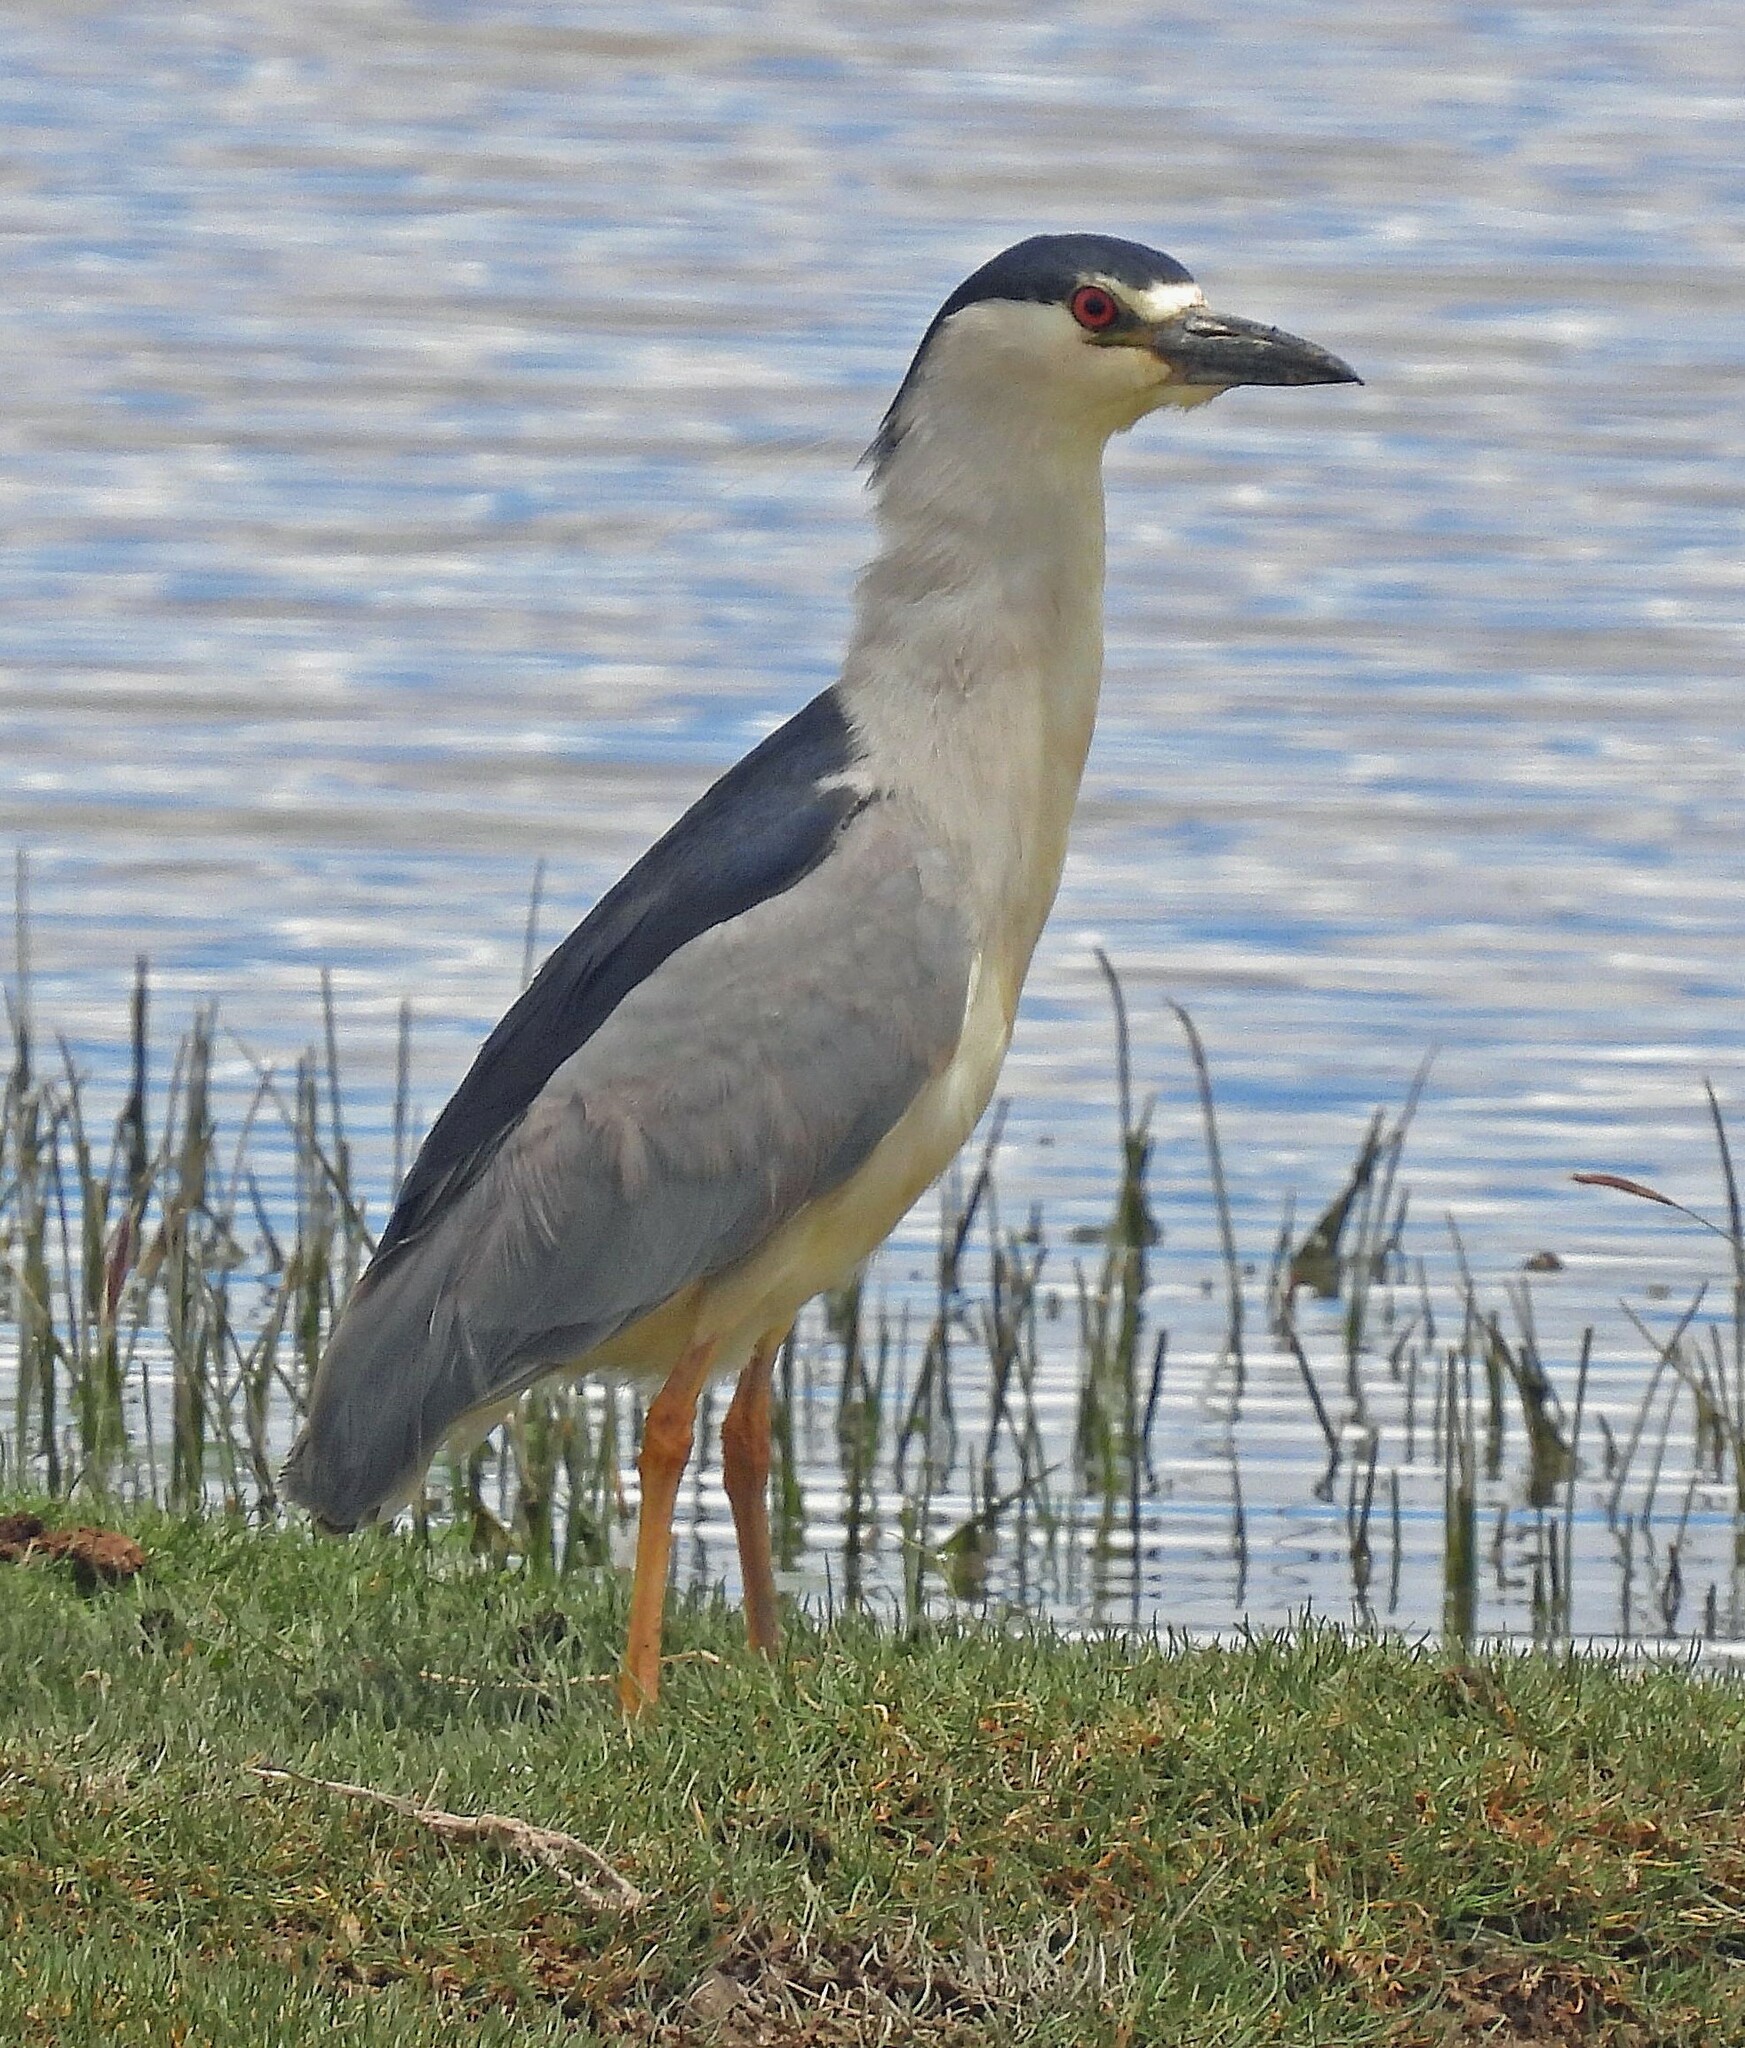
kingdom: Animalia
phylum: Chordata
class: Aves
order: Pelecaniformes
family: Ardeidae
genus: Nycticorax
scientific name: Nycticorax nycticorax
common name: Black-crowned night heron
